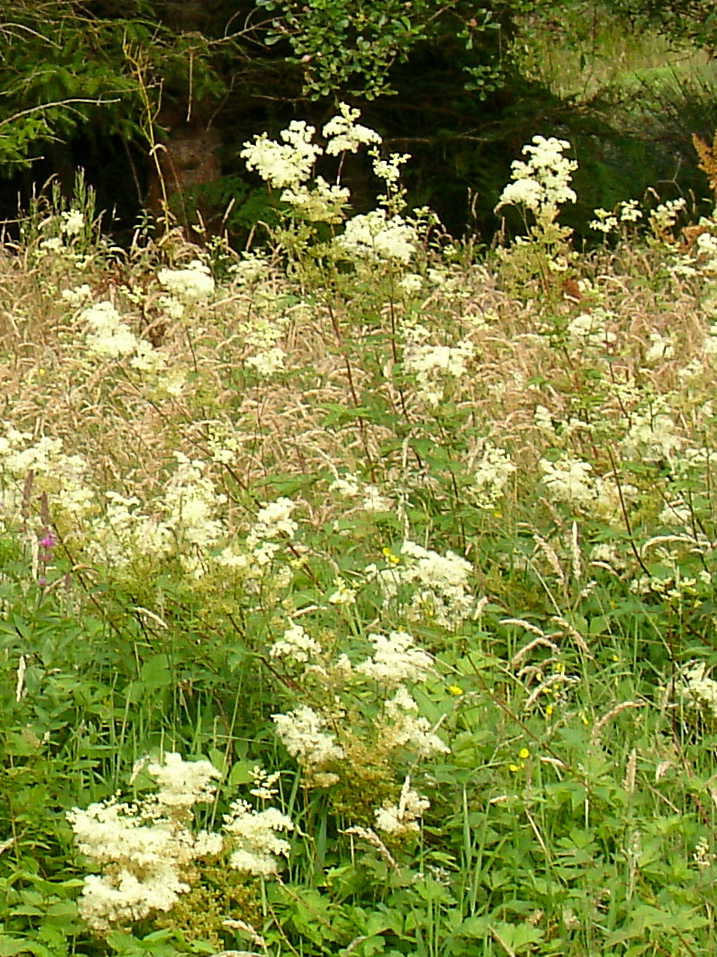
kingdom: Plantae
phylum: Tracheophyta
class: Magnoliopsida
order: Rosales
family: Rosaceae
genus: Filipendula
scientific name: Filipendula ulmaria
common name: Meadowsweet
